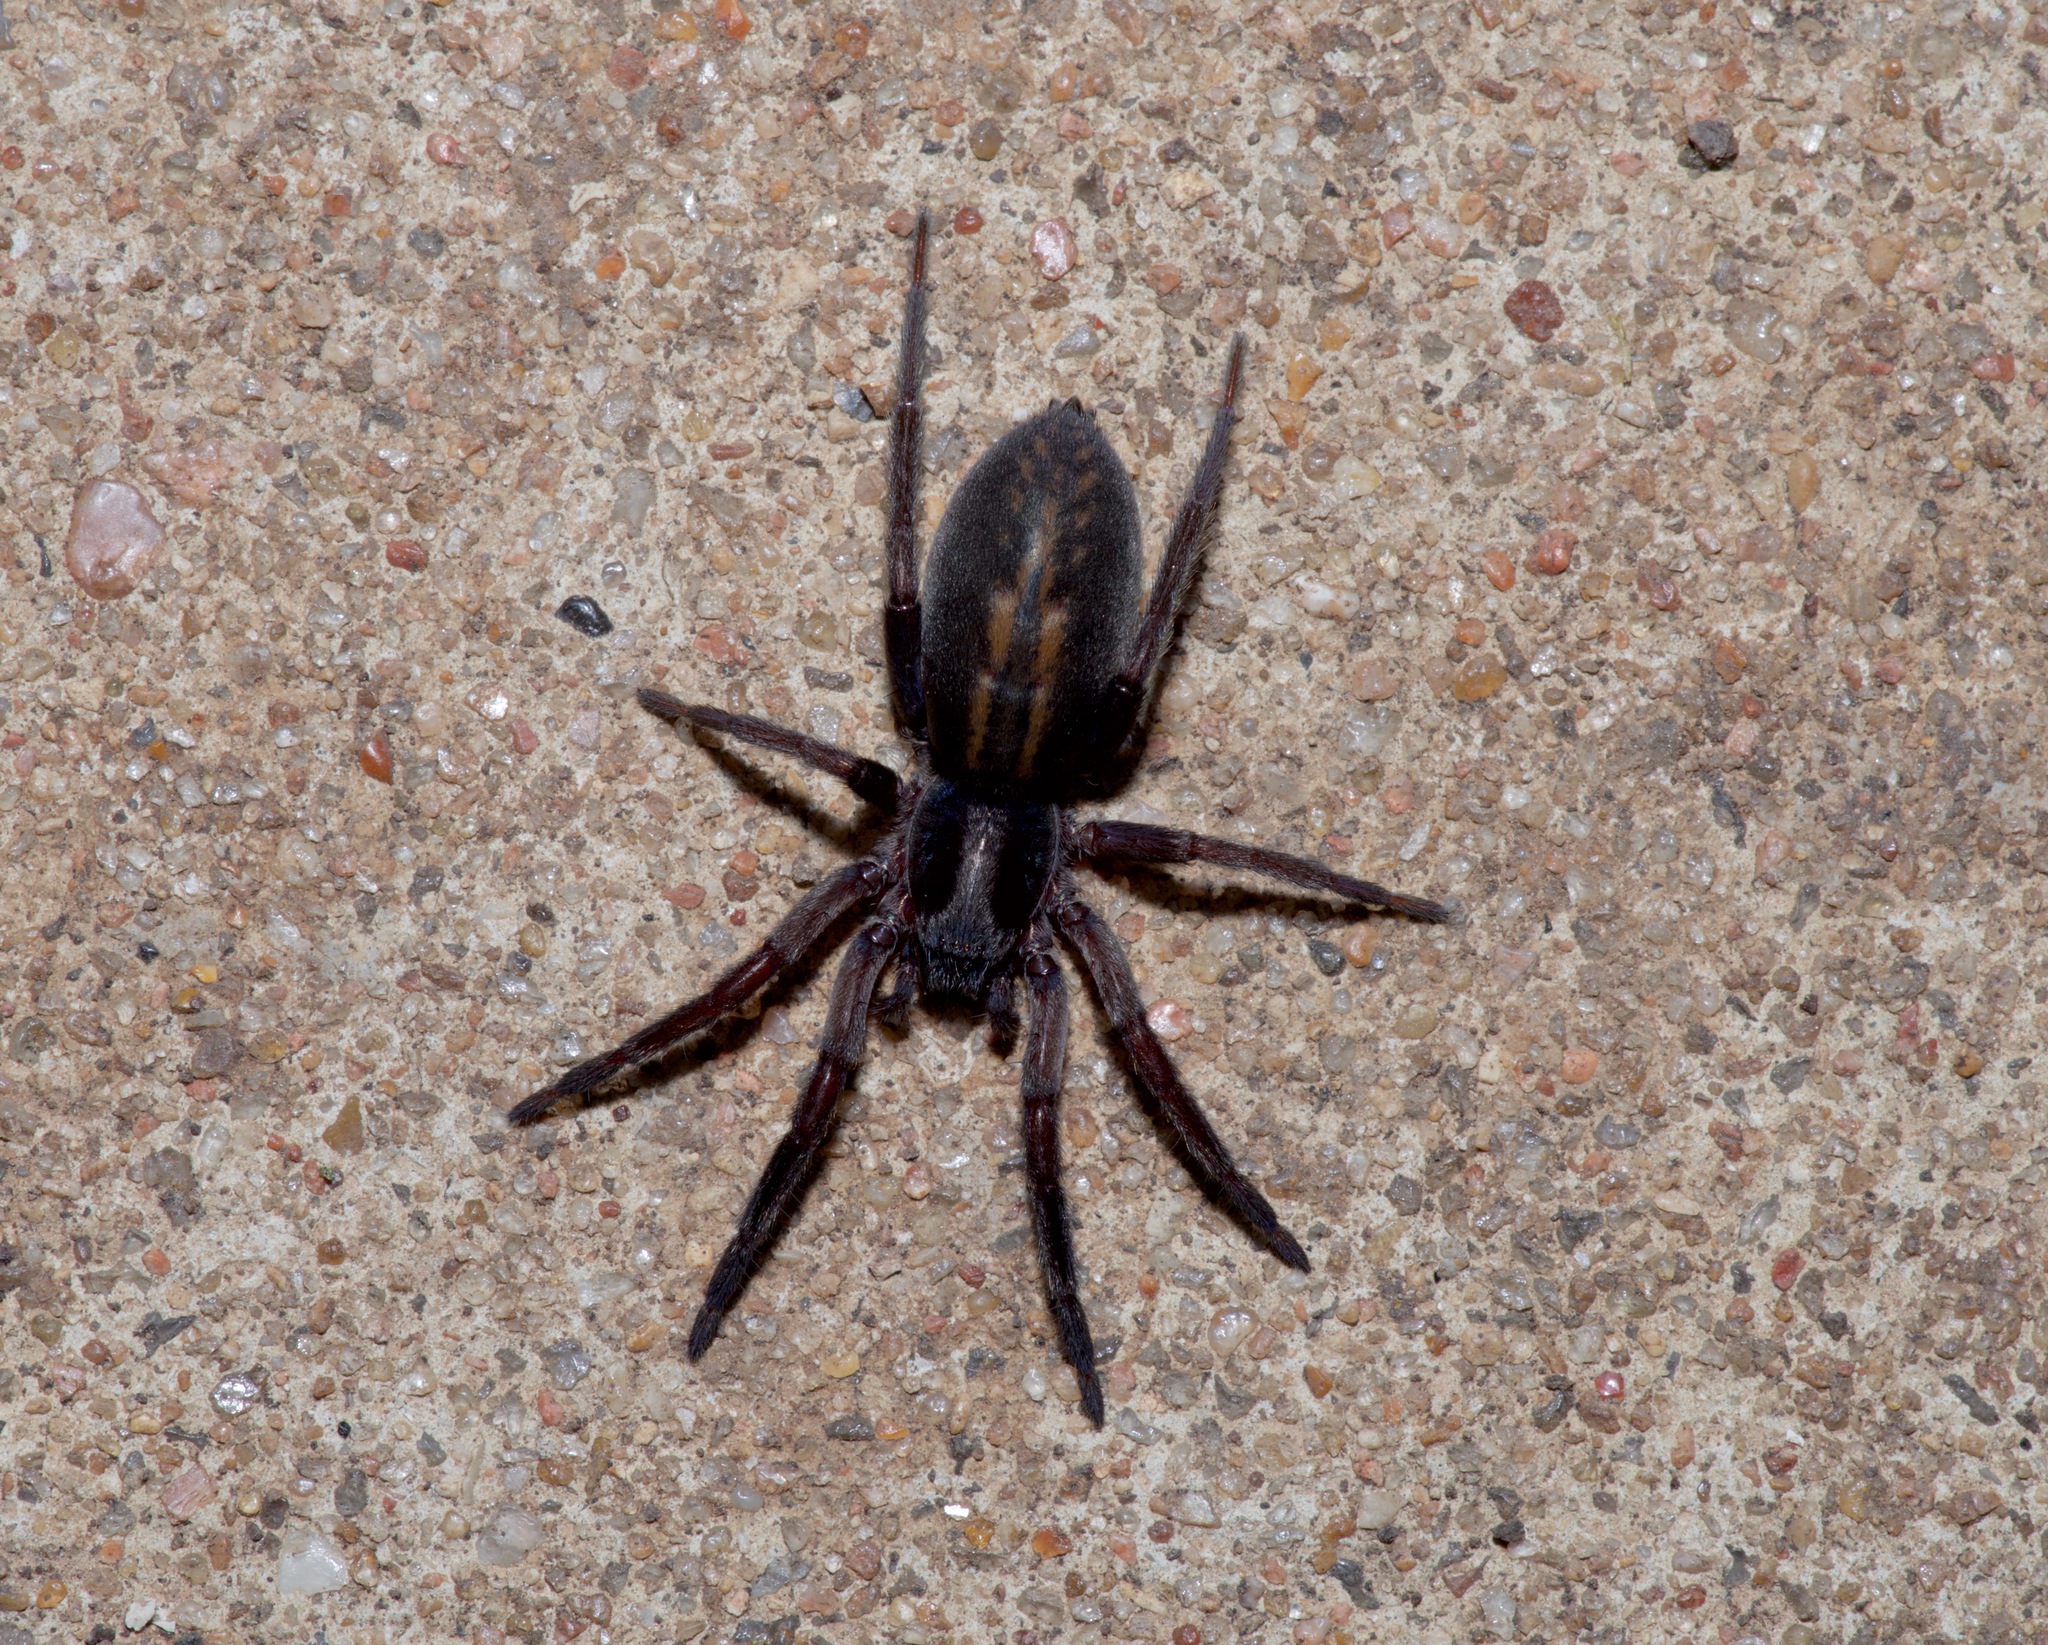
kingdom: Animalia
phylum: Arthropoda
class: Arachnida
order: Araneae
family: Miturgidae
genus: Teminius
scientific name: Teminius affinis
